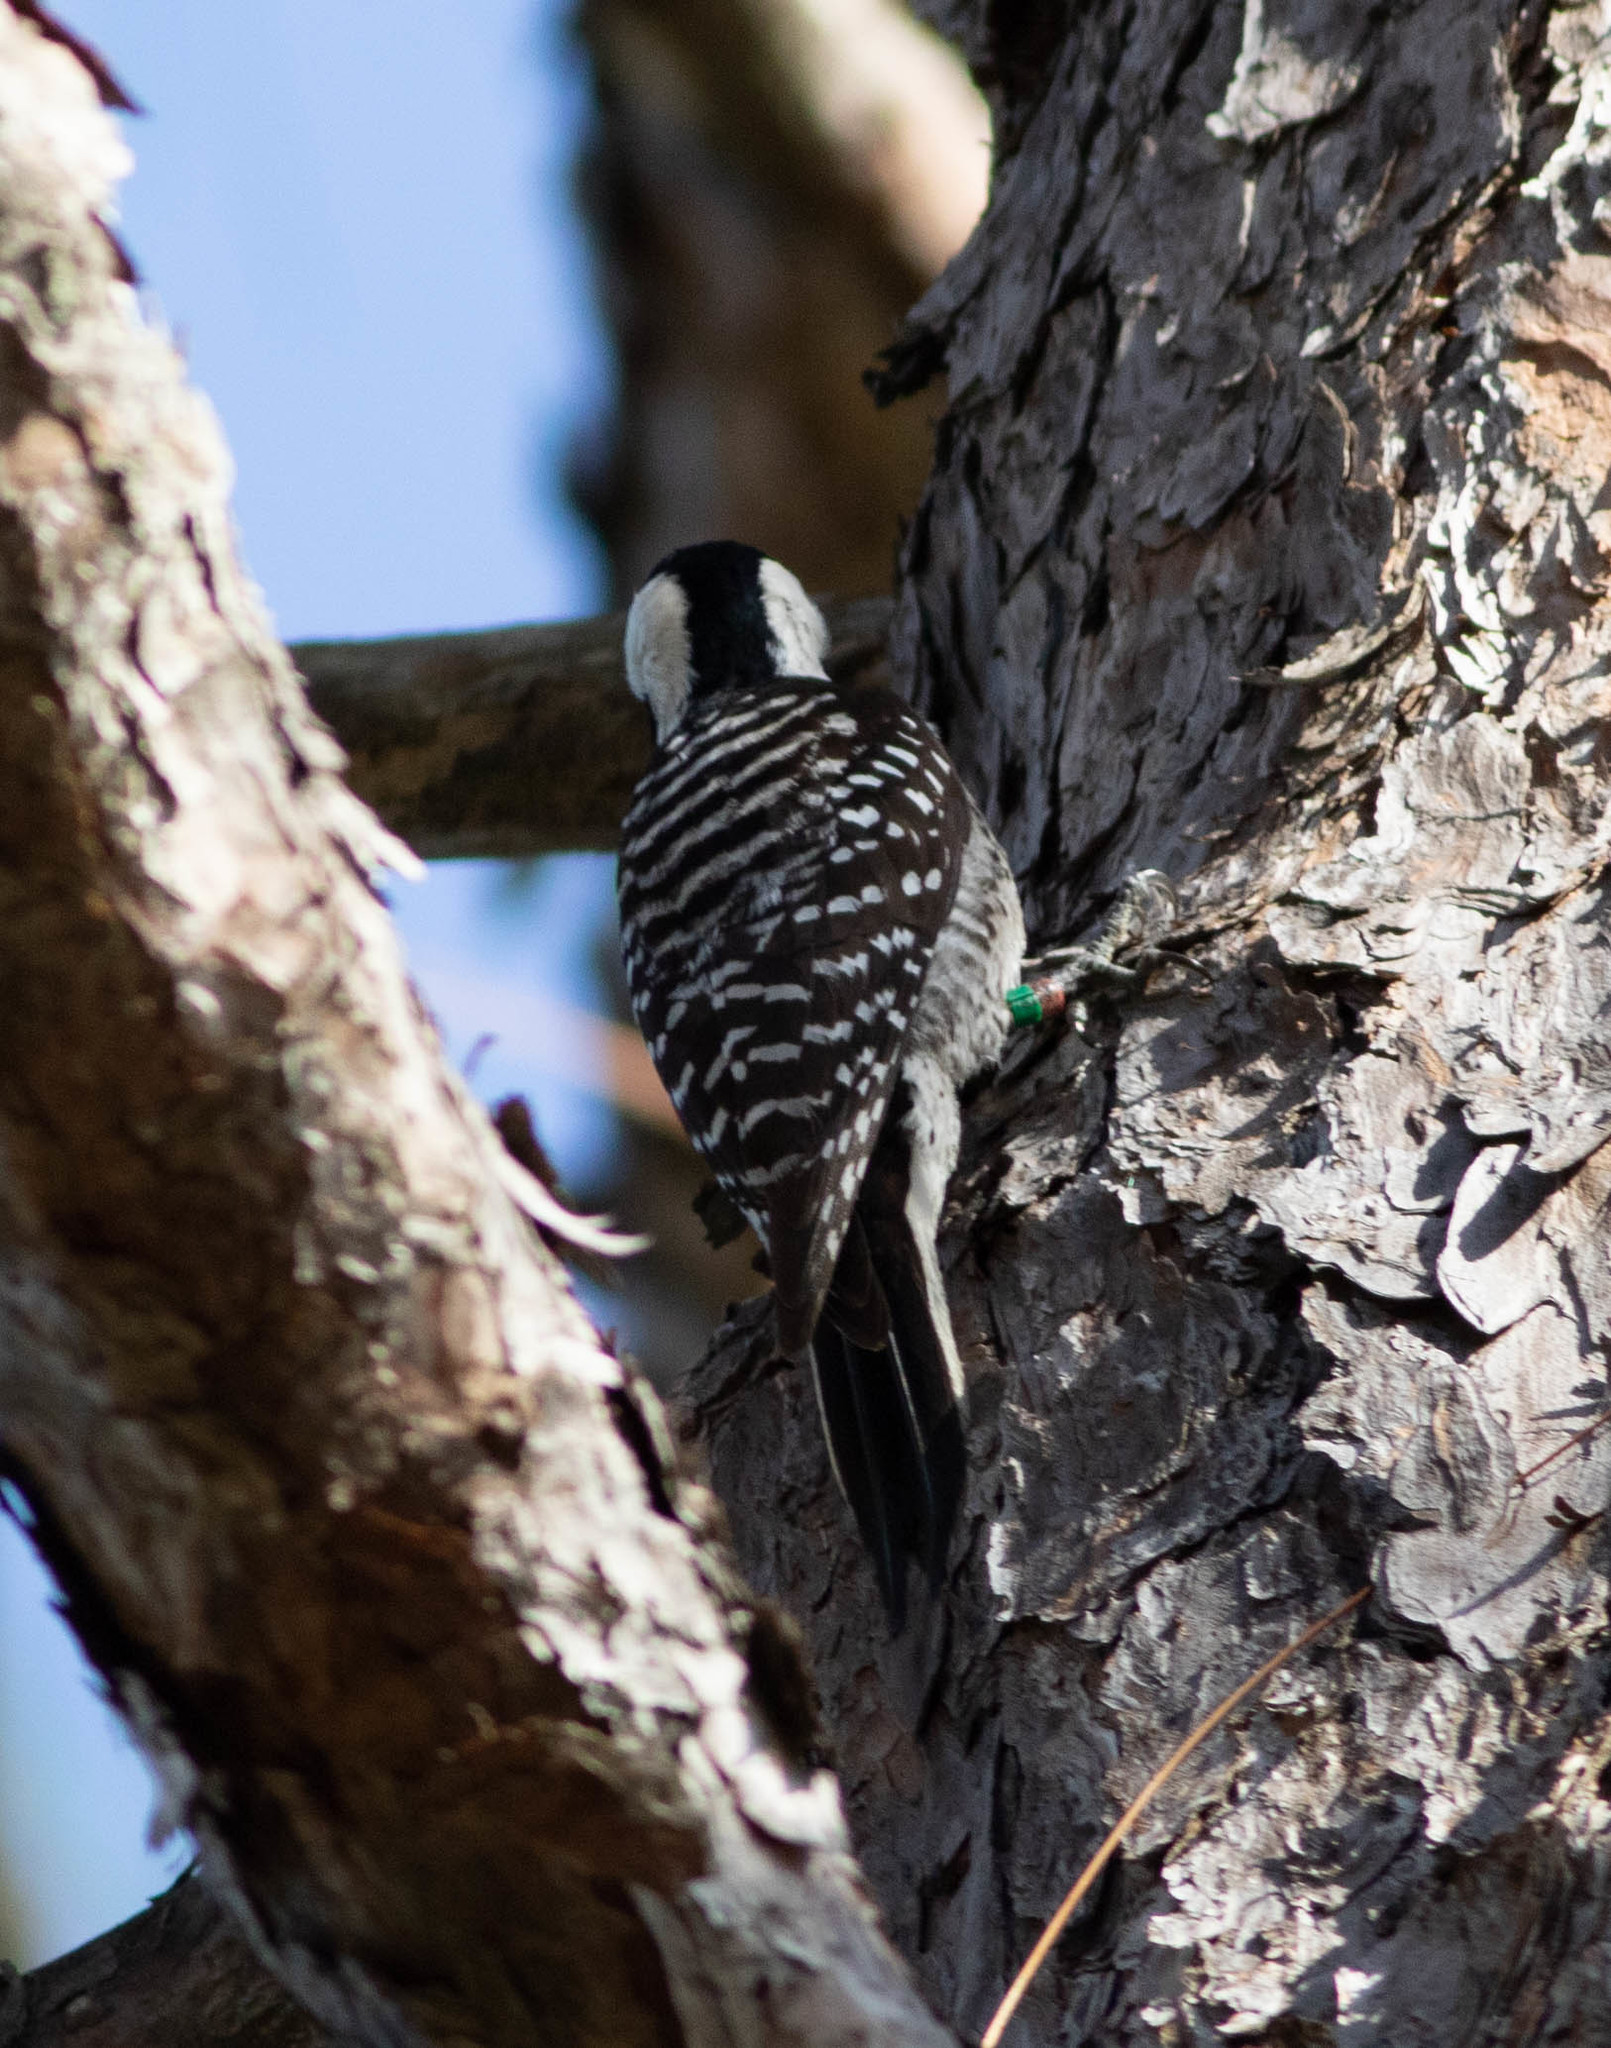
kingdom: Animalia
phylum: Chordata
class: Aves
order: Piciformes
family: Picidae
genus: Leuconotopicus
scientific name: Leuconotopicus borealis
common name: Red-cockaded woodpecker
